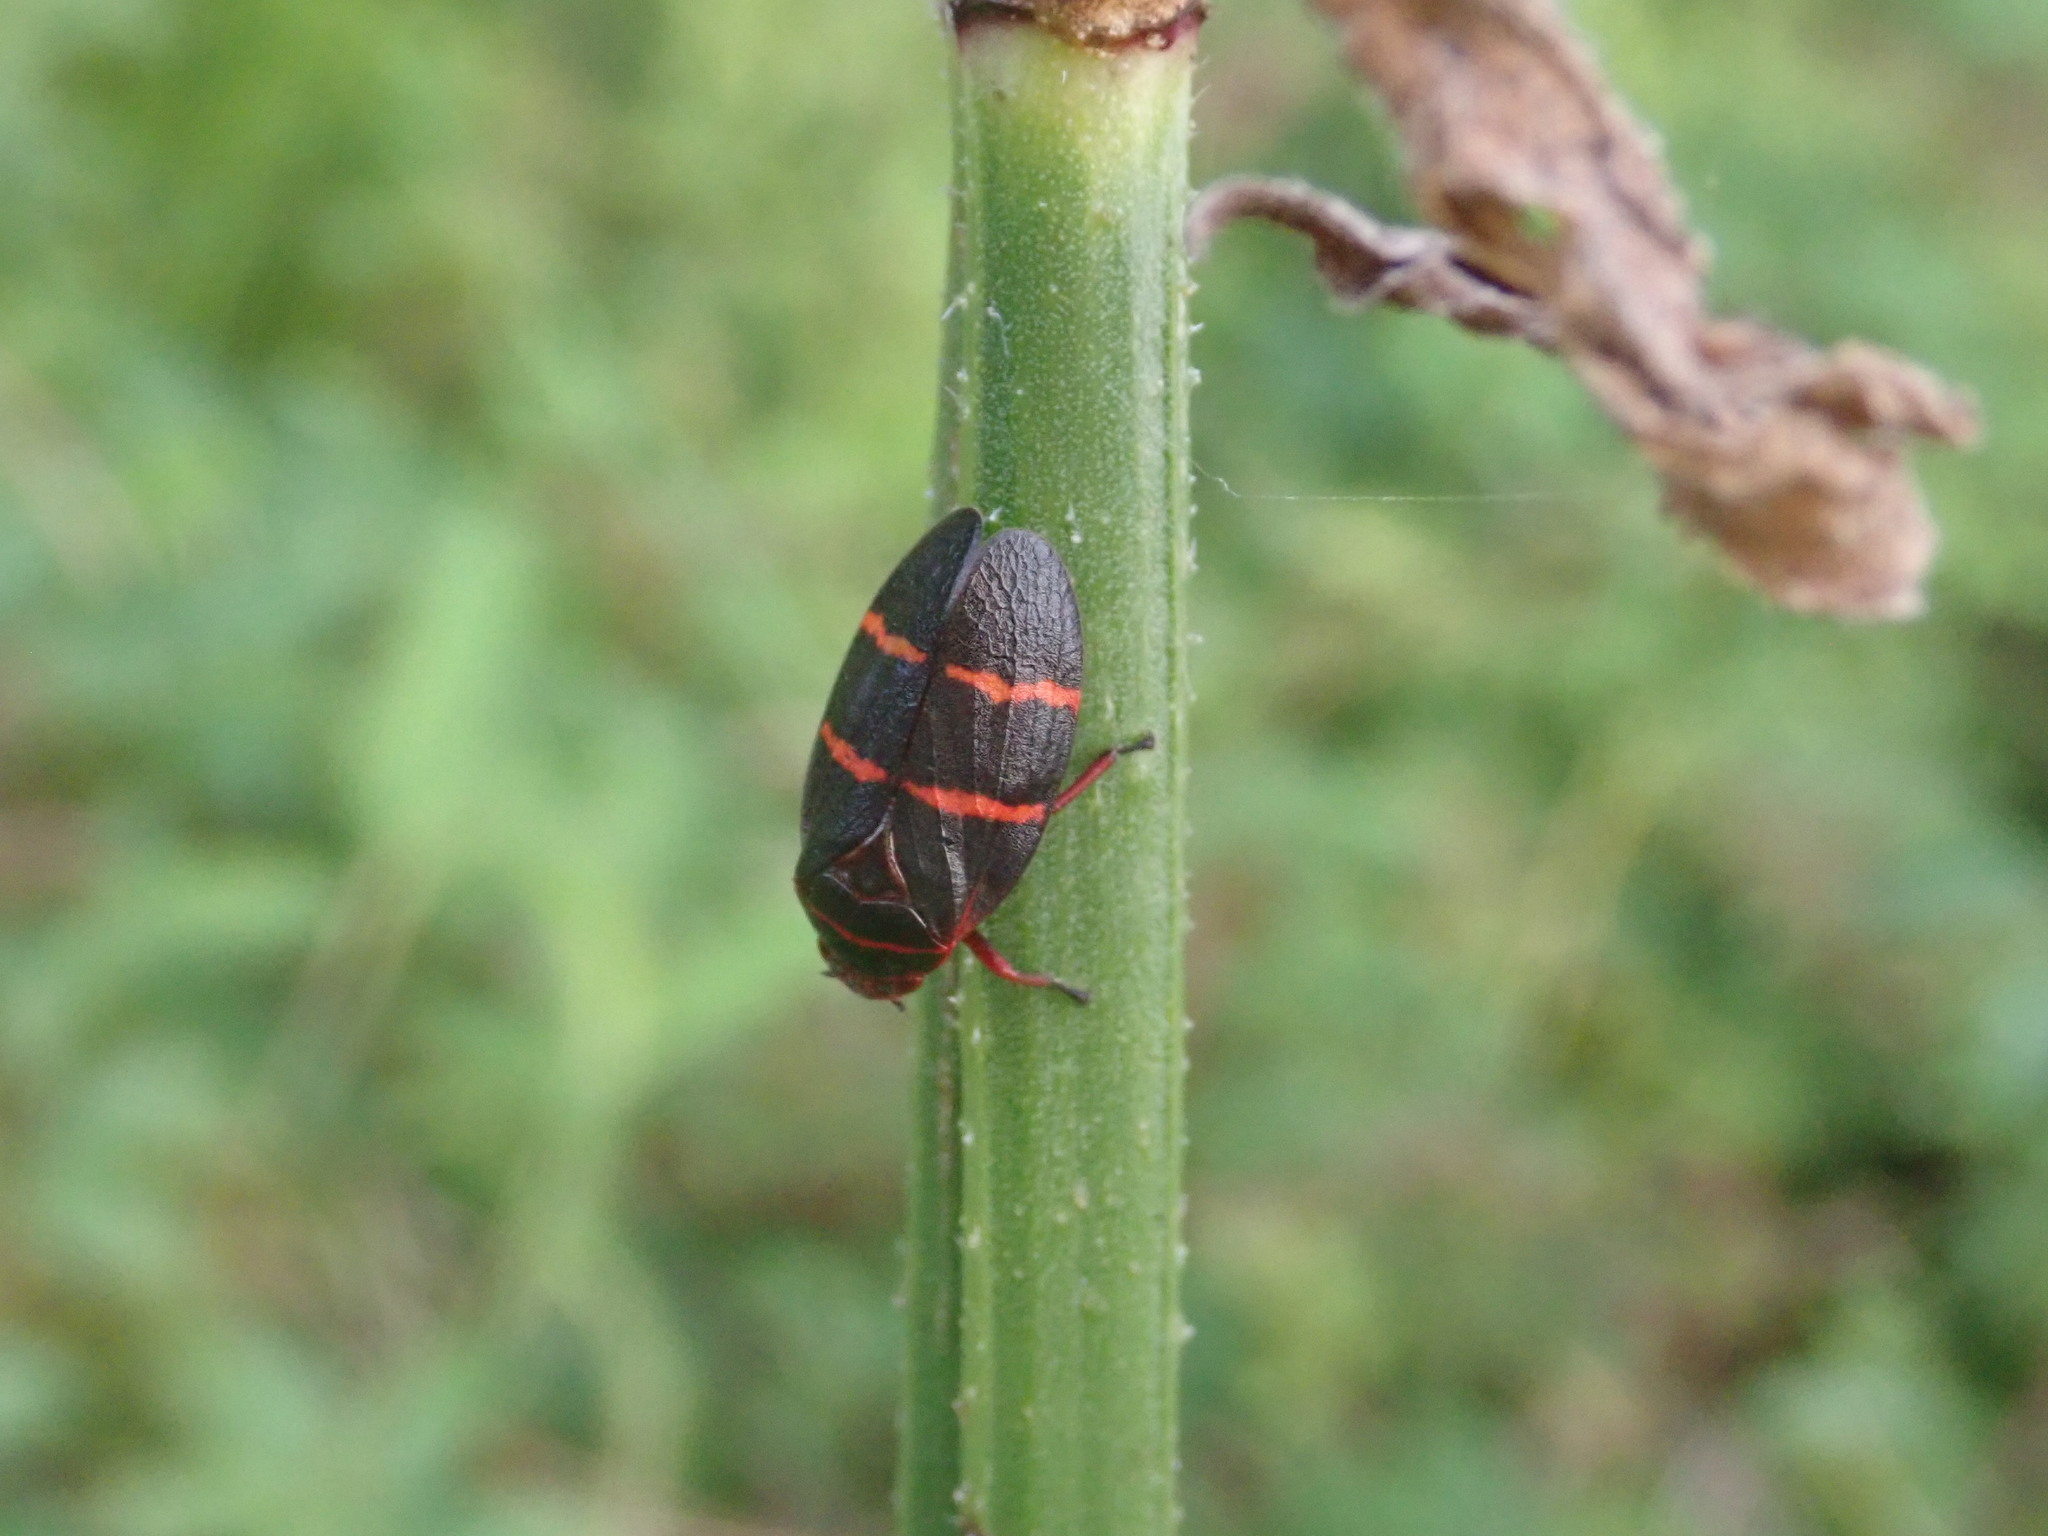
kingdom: Animalia
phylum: Arthropoda
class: Insecta
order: Hemiptera
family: Cercopidae
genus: Prosapia
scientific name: Prosapia bicincta
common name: Twolined spittlebug
